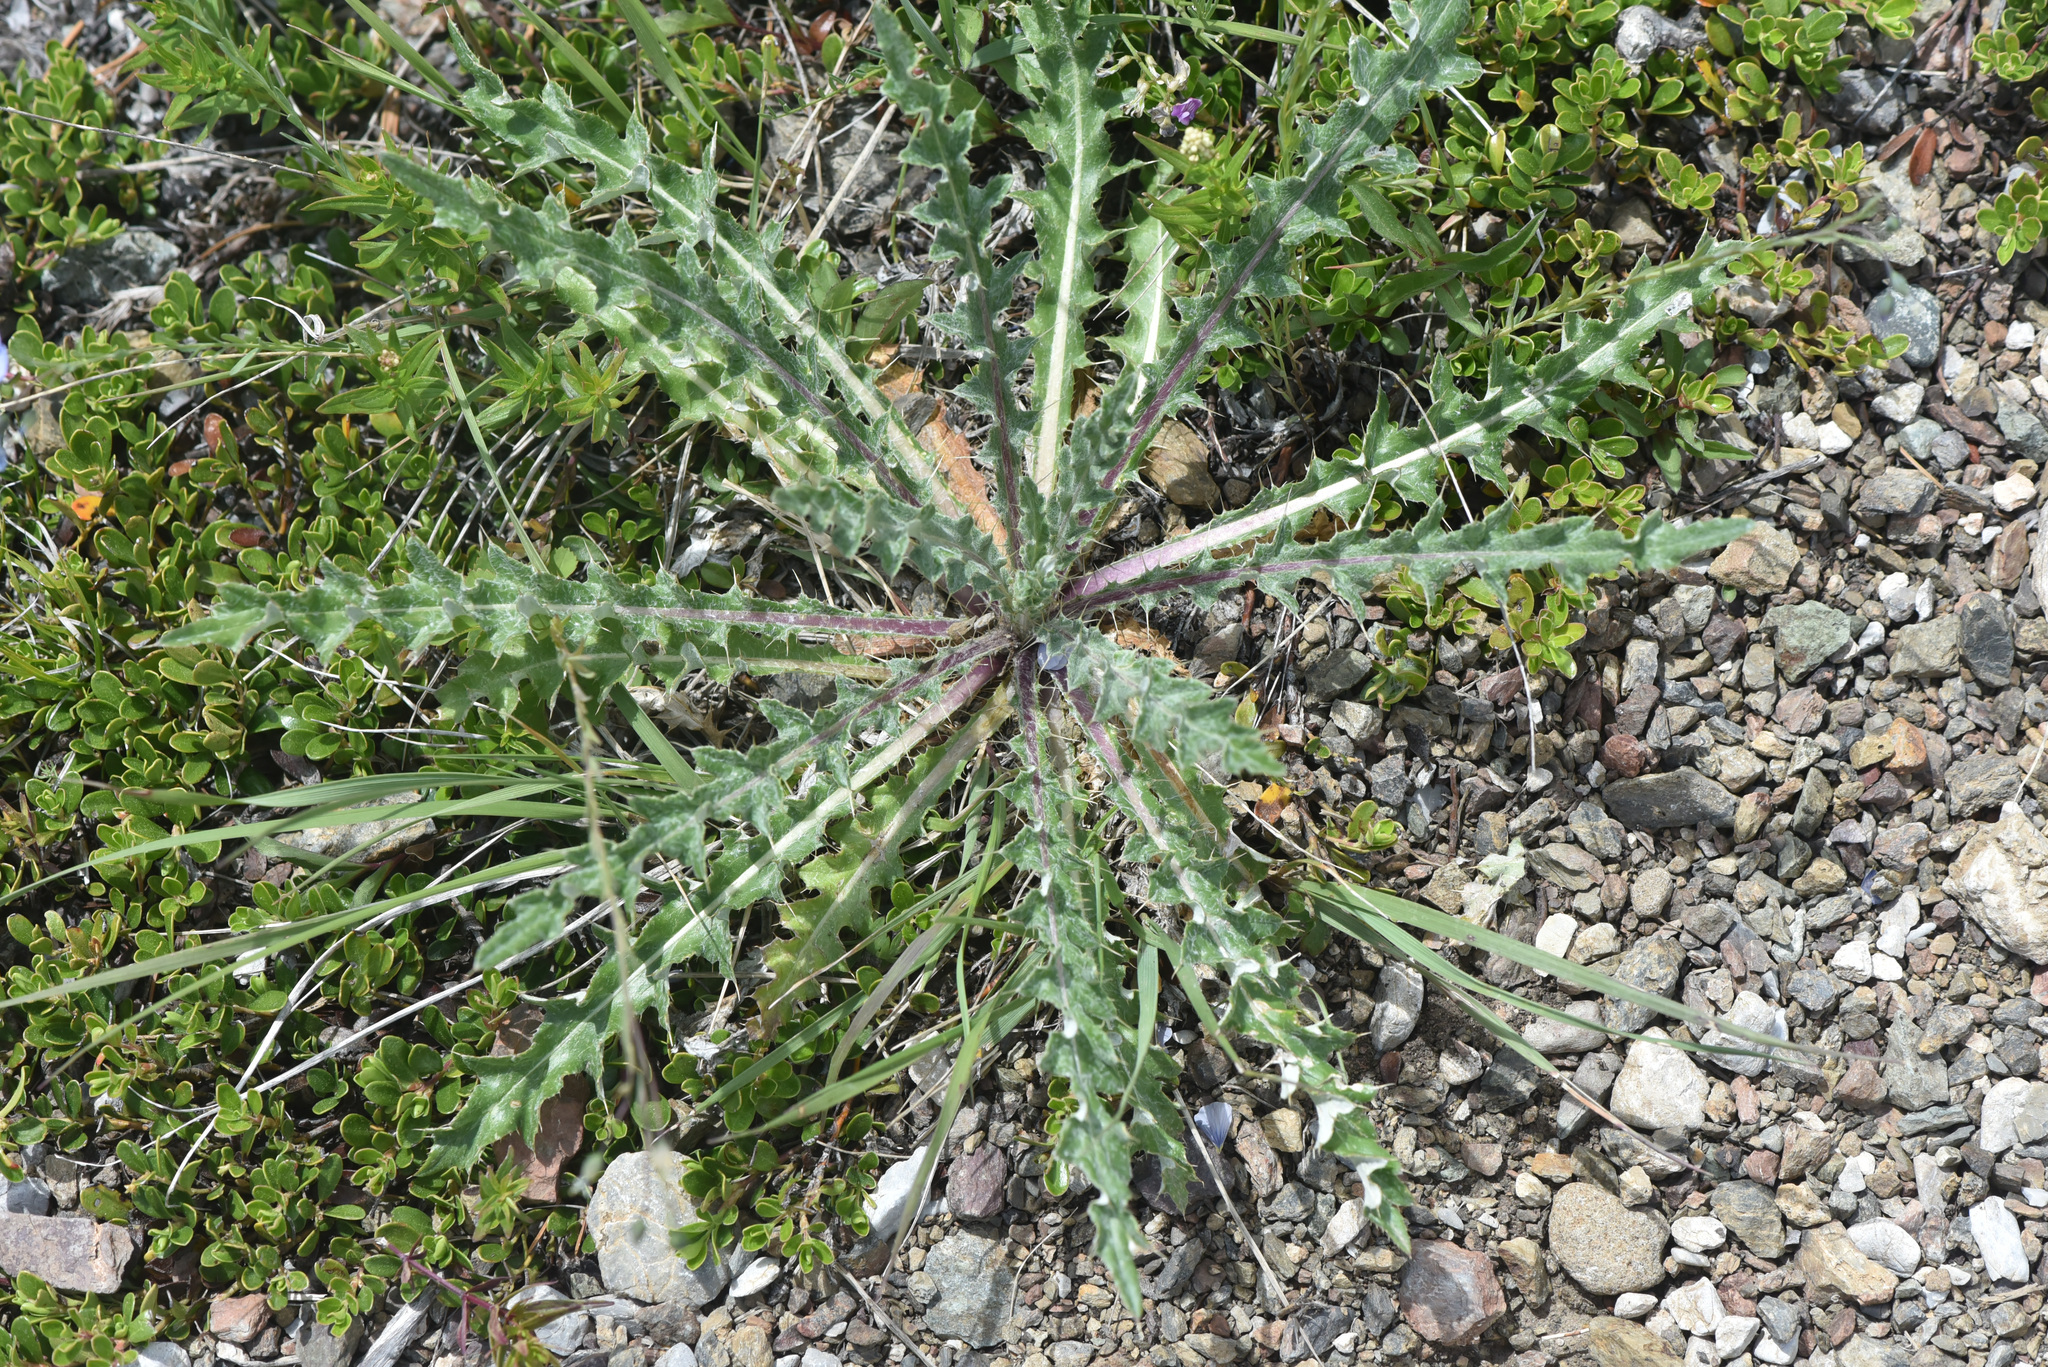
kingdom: Plantae
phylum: Tracheophyta
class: Magnoliopsida
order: Asterales
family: Asteraceae
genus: Cirsium
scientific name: Cirsium hookerianum
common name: Hooker's thistle
